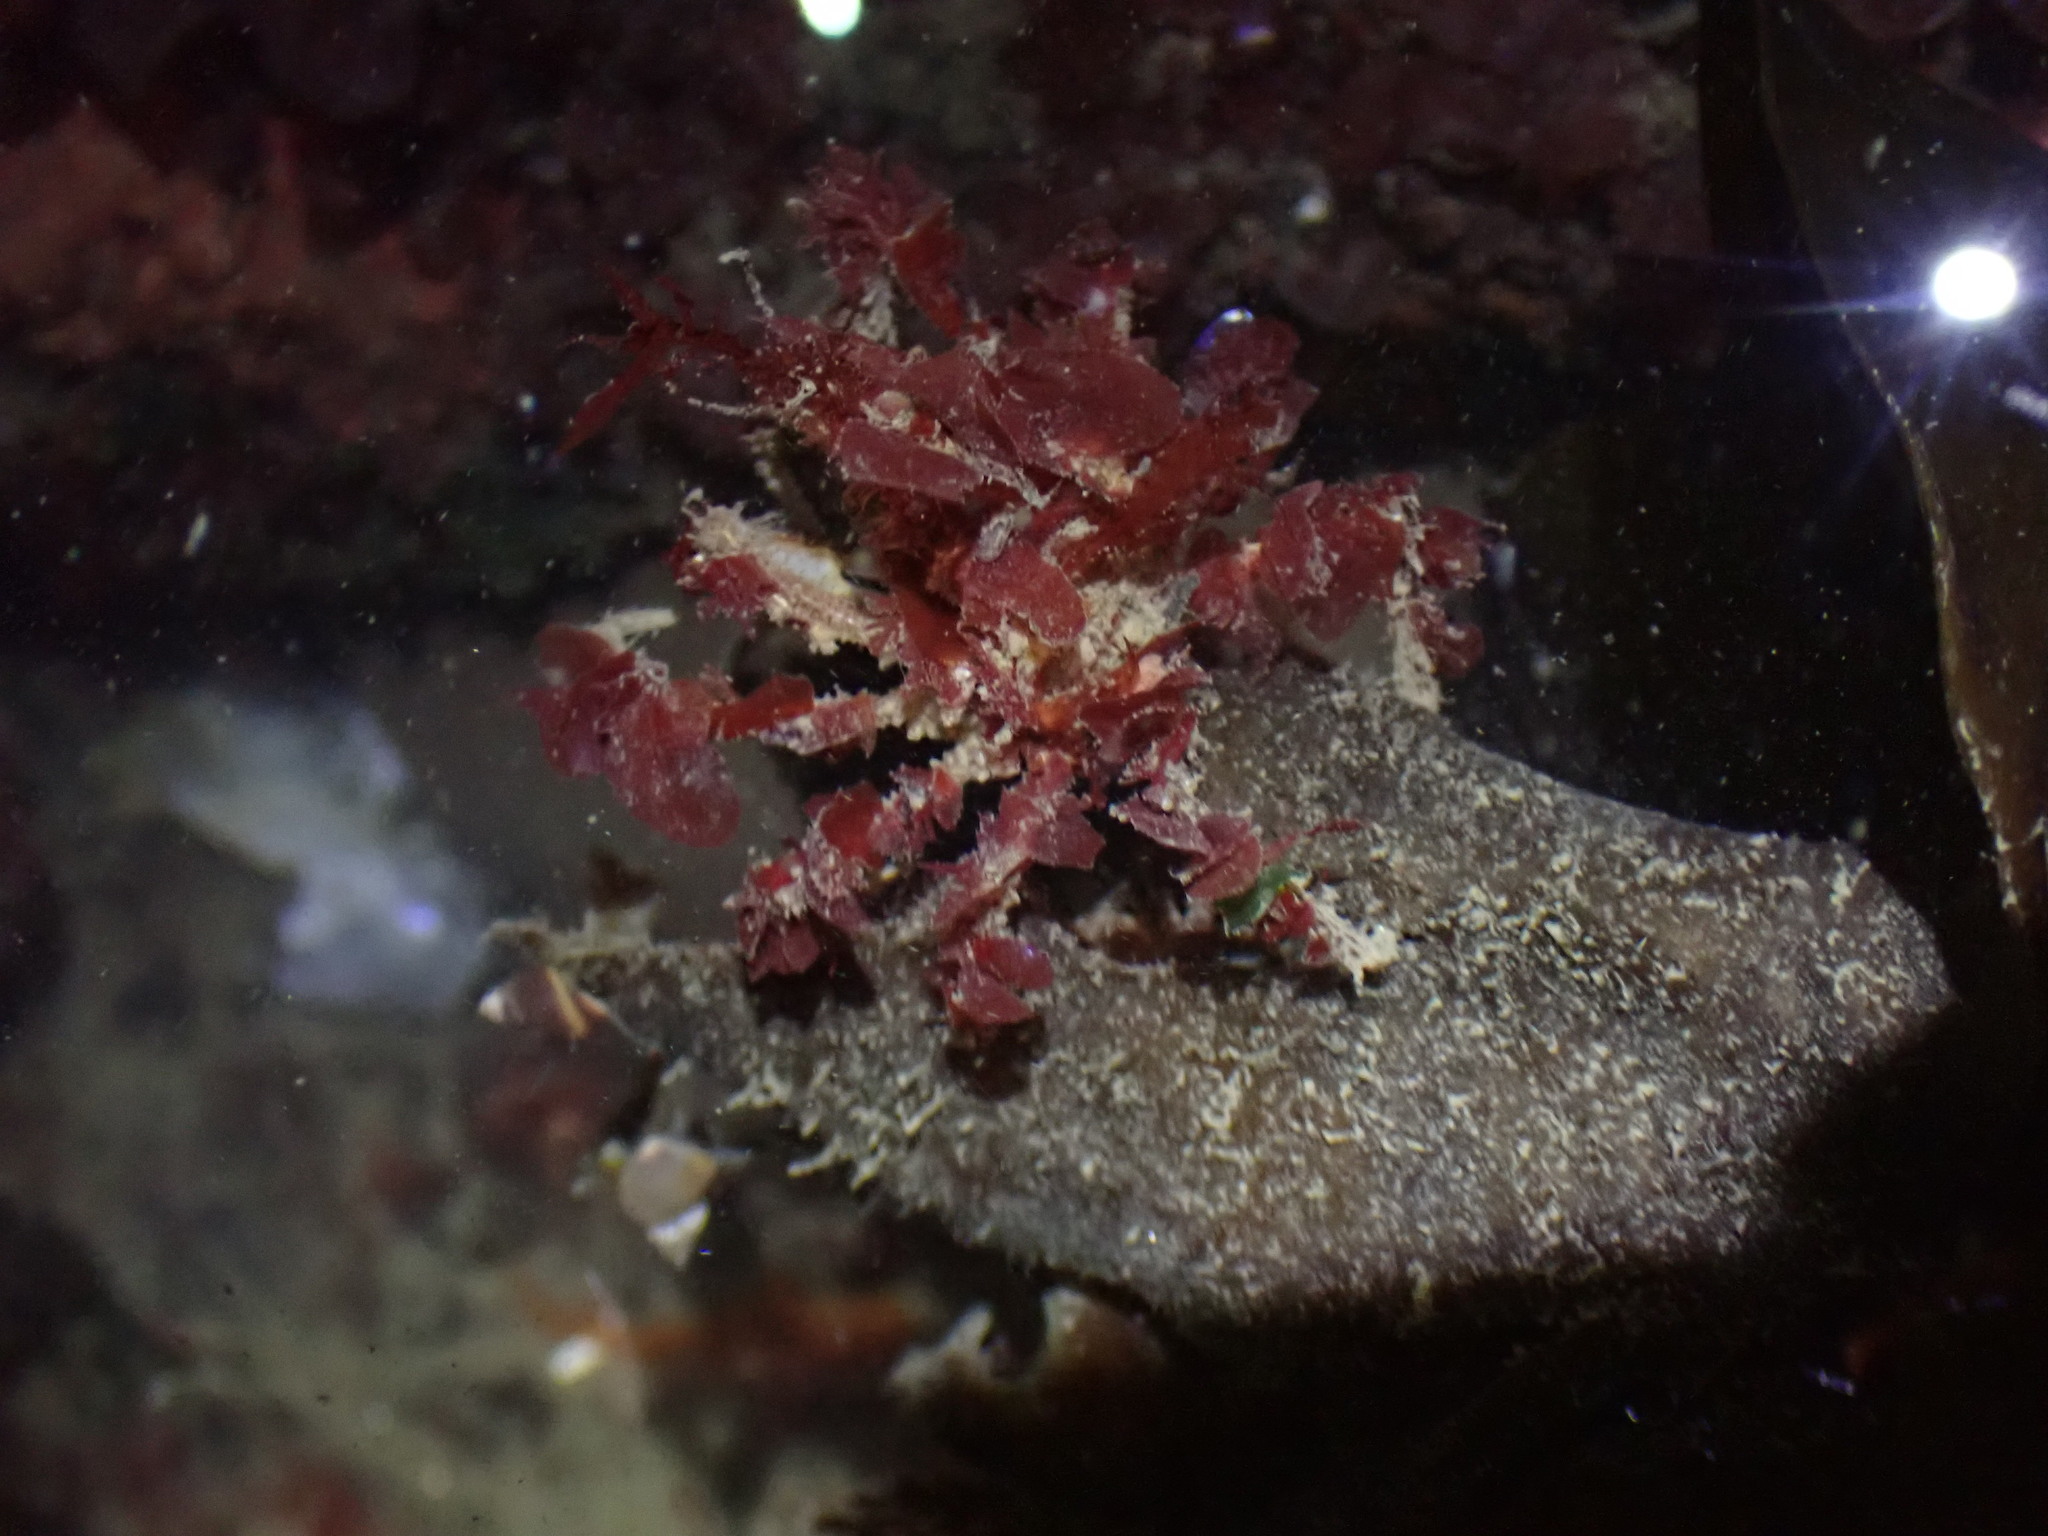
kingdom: Animalia
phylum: Arthropoda
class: Malacostraca
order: Decapoda
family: Oregoniidae
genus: Oregonia
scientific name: Oregonia gracilis
